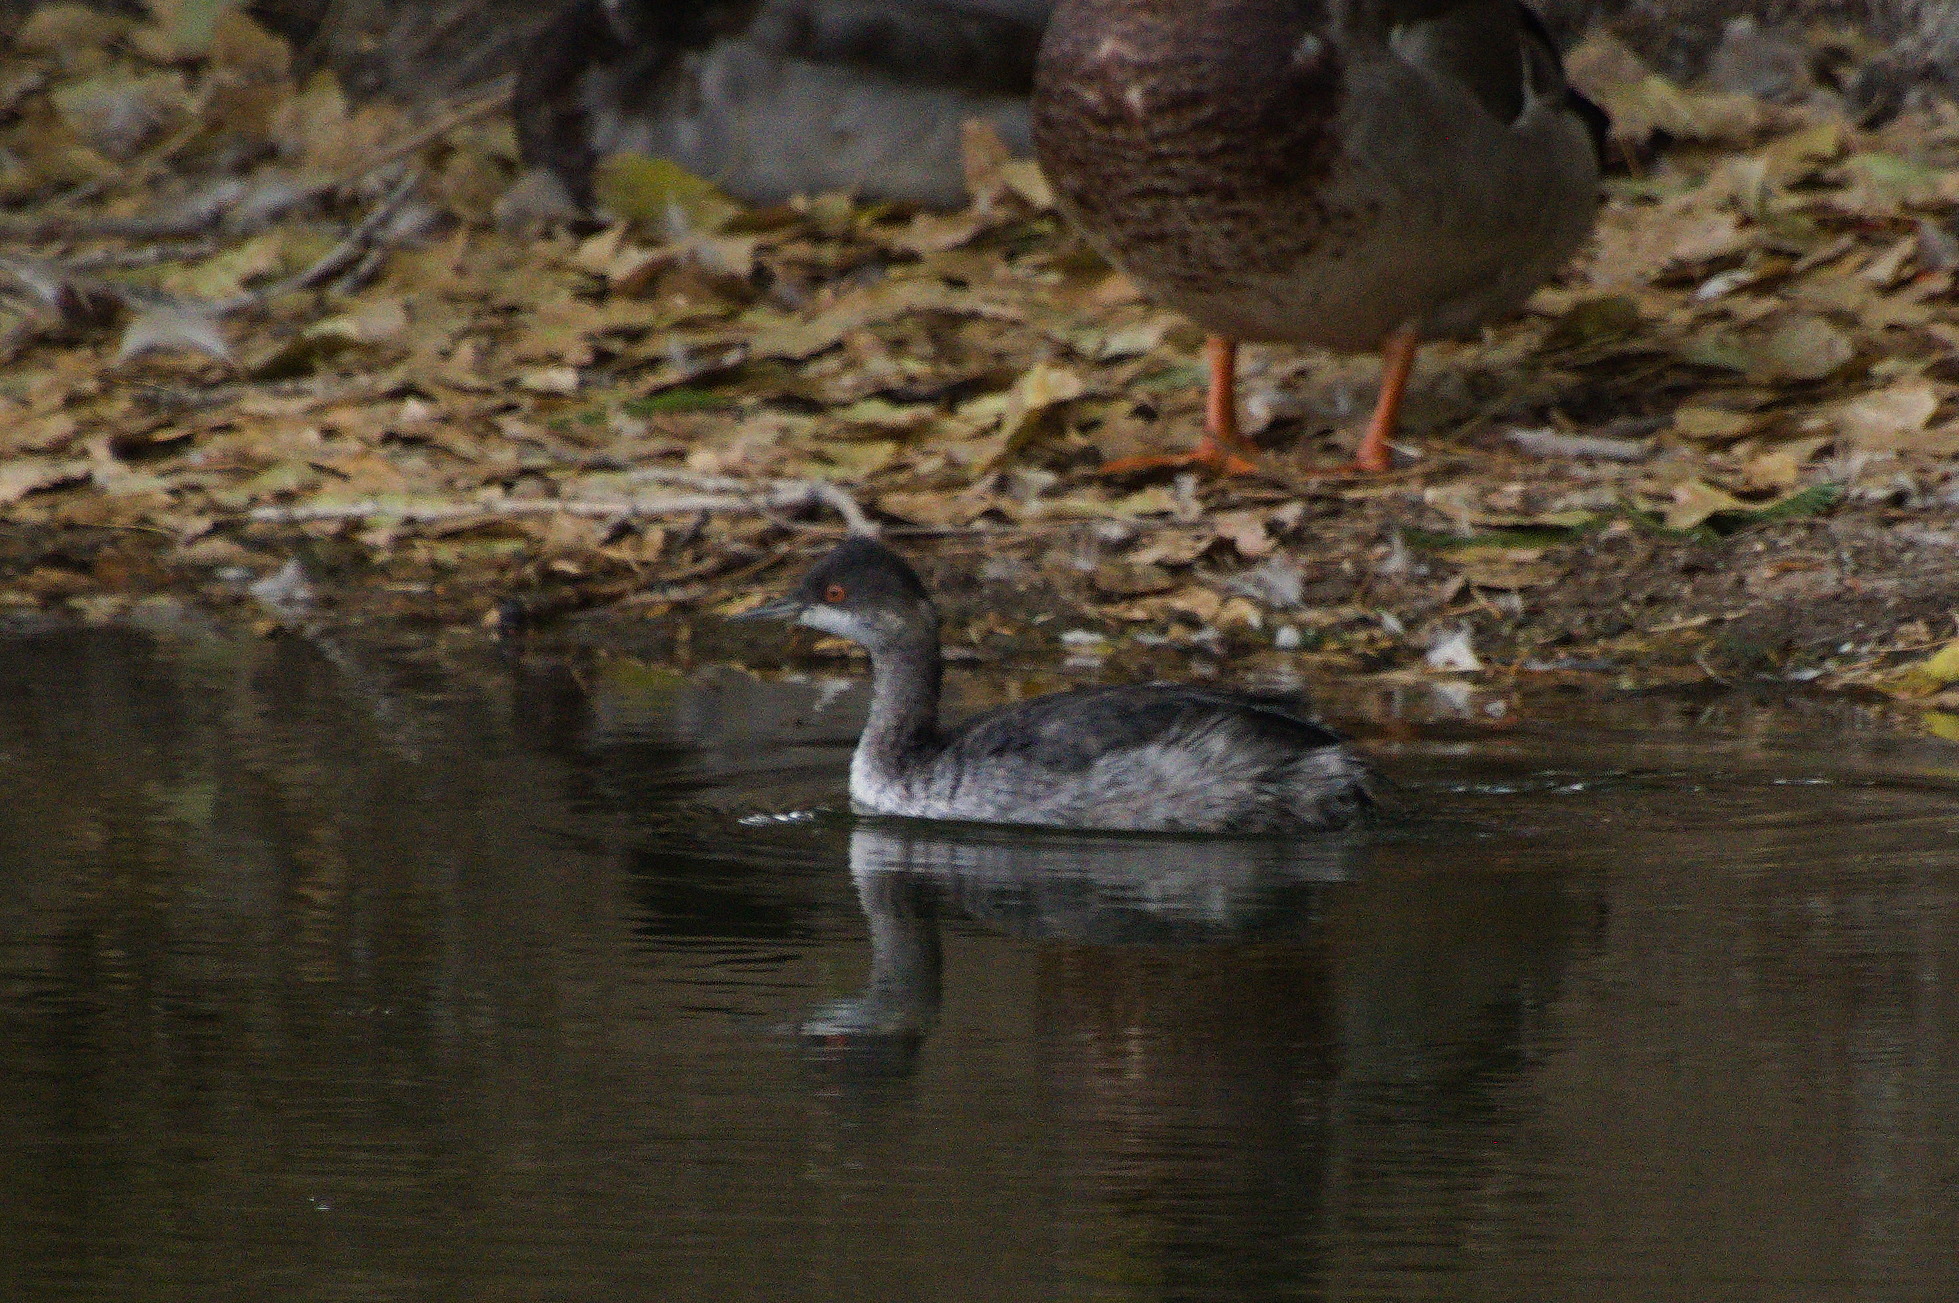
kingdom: Animalia
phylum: Chordata
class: Aves
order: Podicipediformes
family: Podicipedidae
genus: Podiceps
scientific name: Podiceps nigricollis
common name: Black-necked grebe
